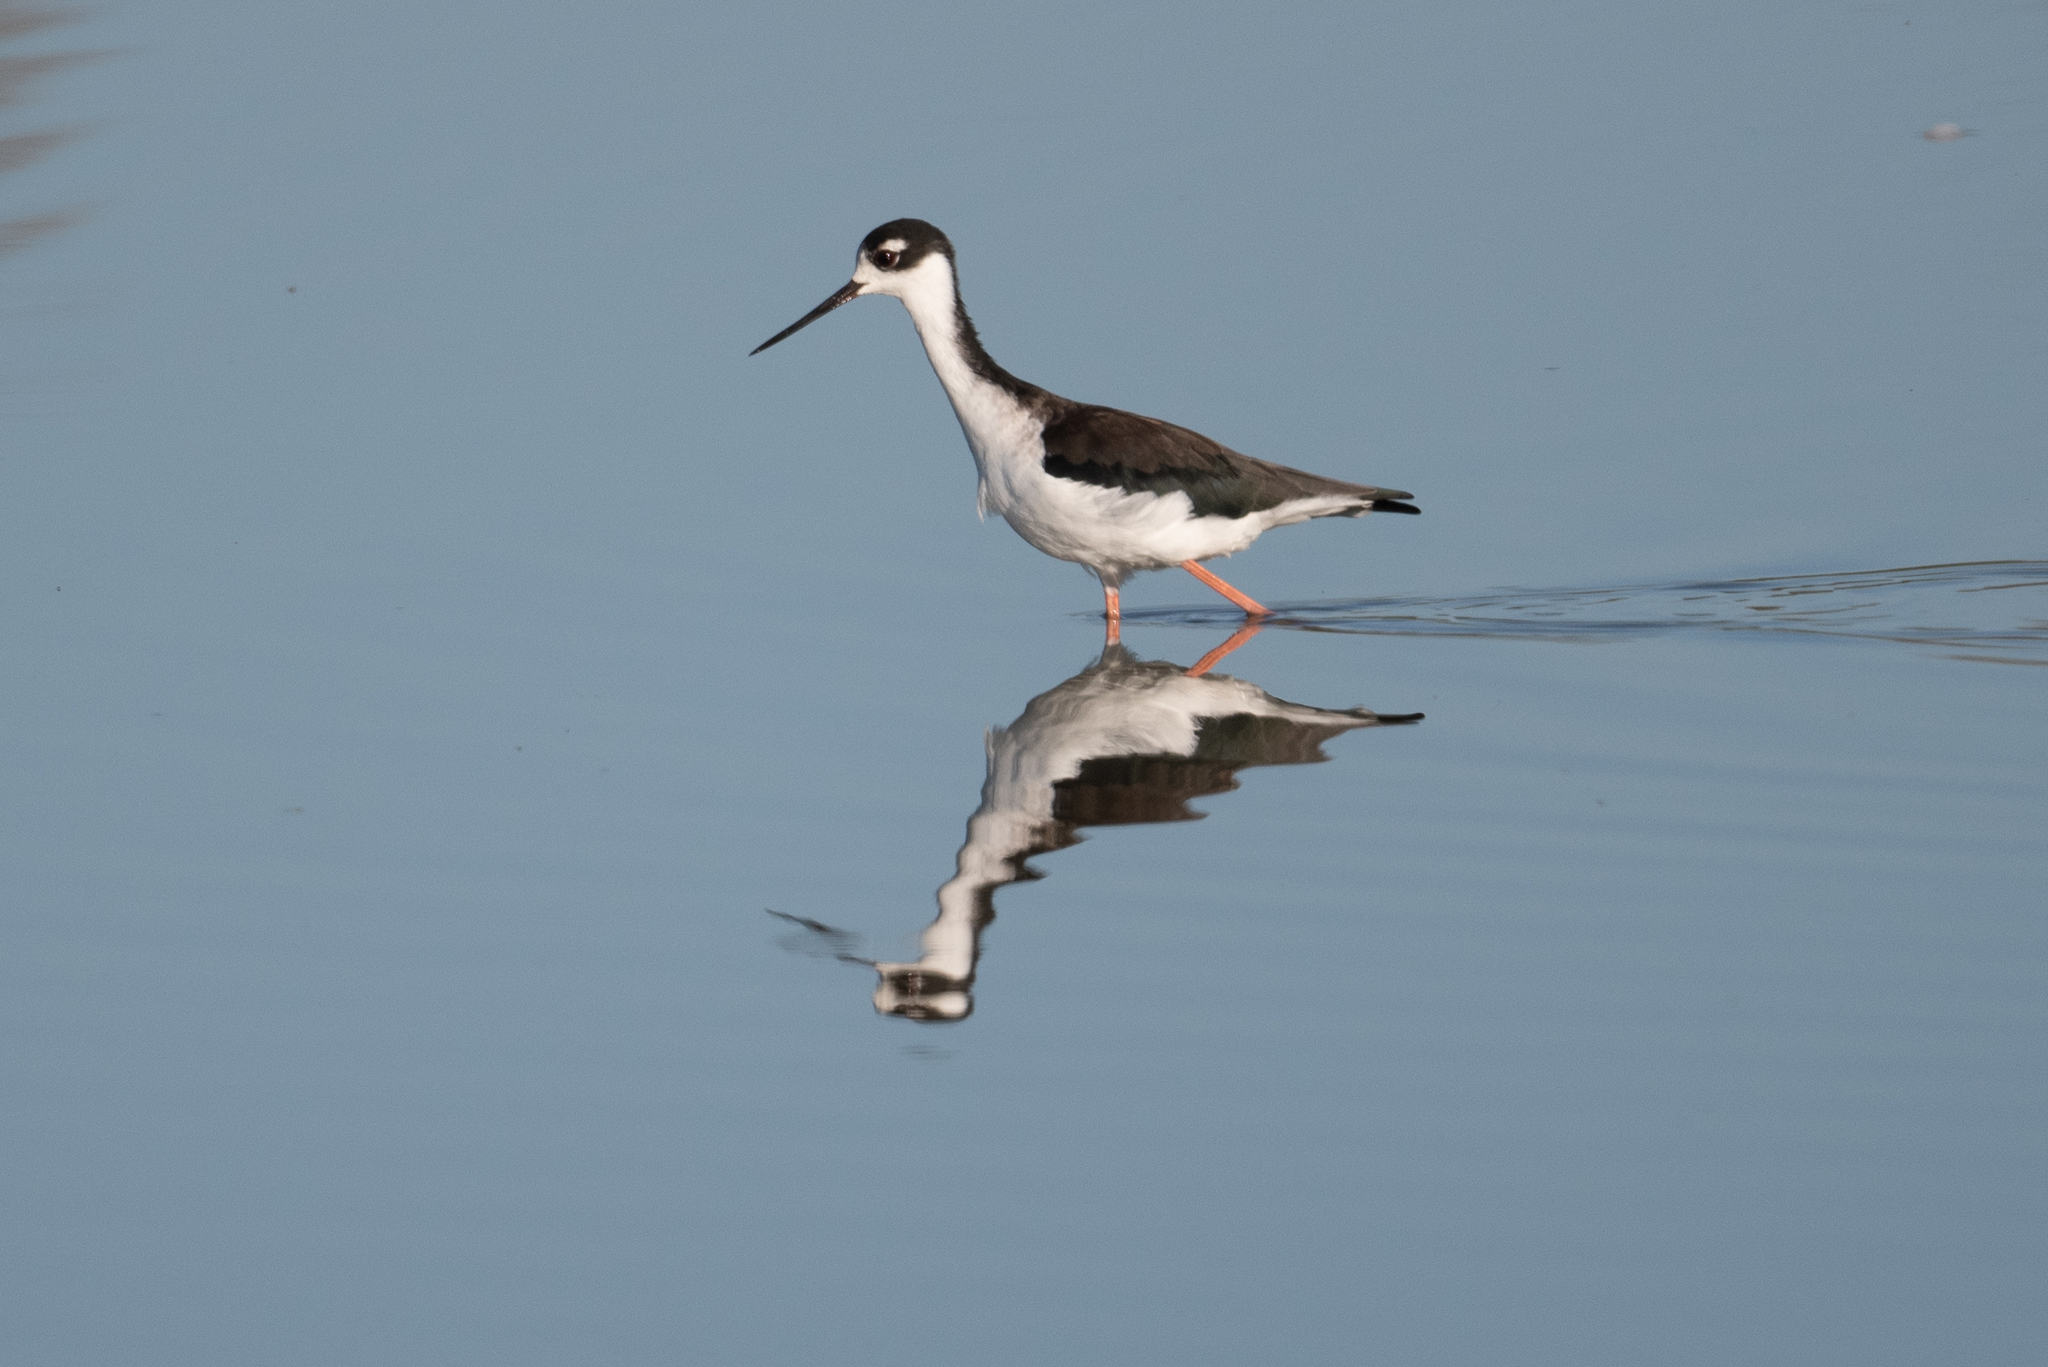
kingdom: Animalia
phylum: Chordata
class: Aves
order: Charadriiformes
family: Recurvirostridae
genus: Himantopus
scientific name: Himantopus mexicanus
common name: Black-necked stilt
